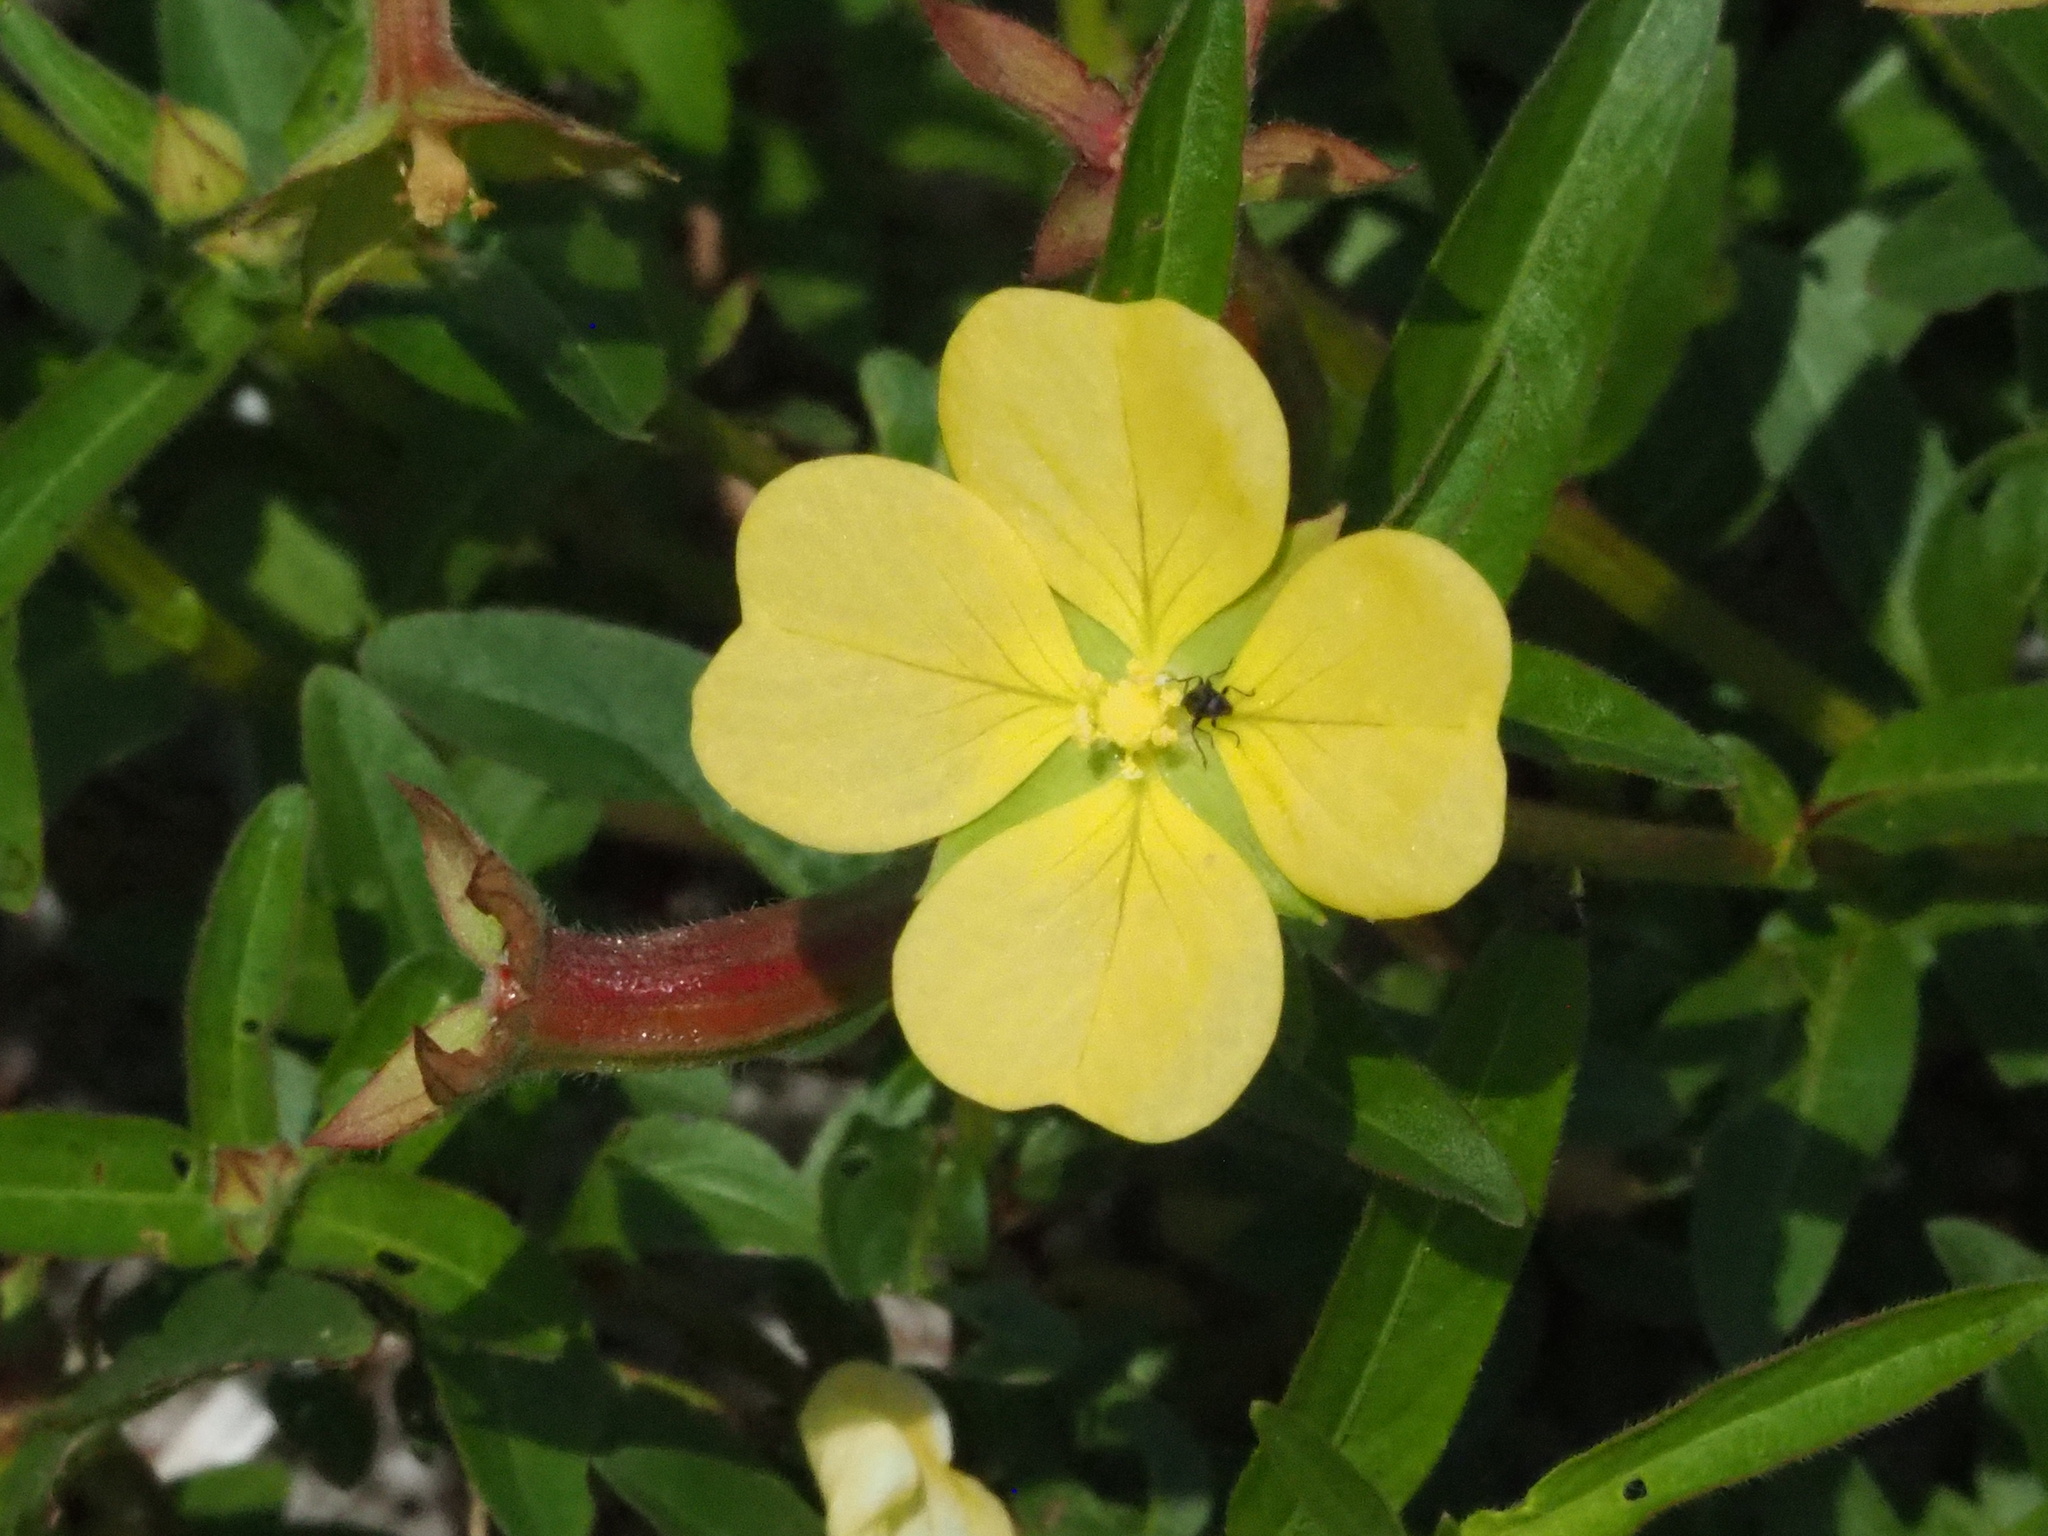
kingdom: Plantae
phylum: Tracheophyta
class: Magnoliopsida
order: Myrtales
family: Onagraceae
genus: Ludwigia
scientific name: Ludwigia octovalvis
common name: Water-primrose
